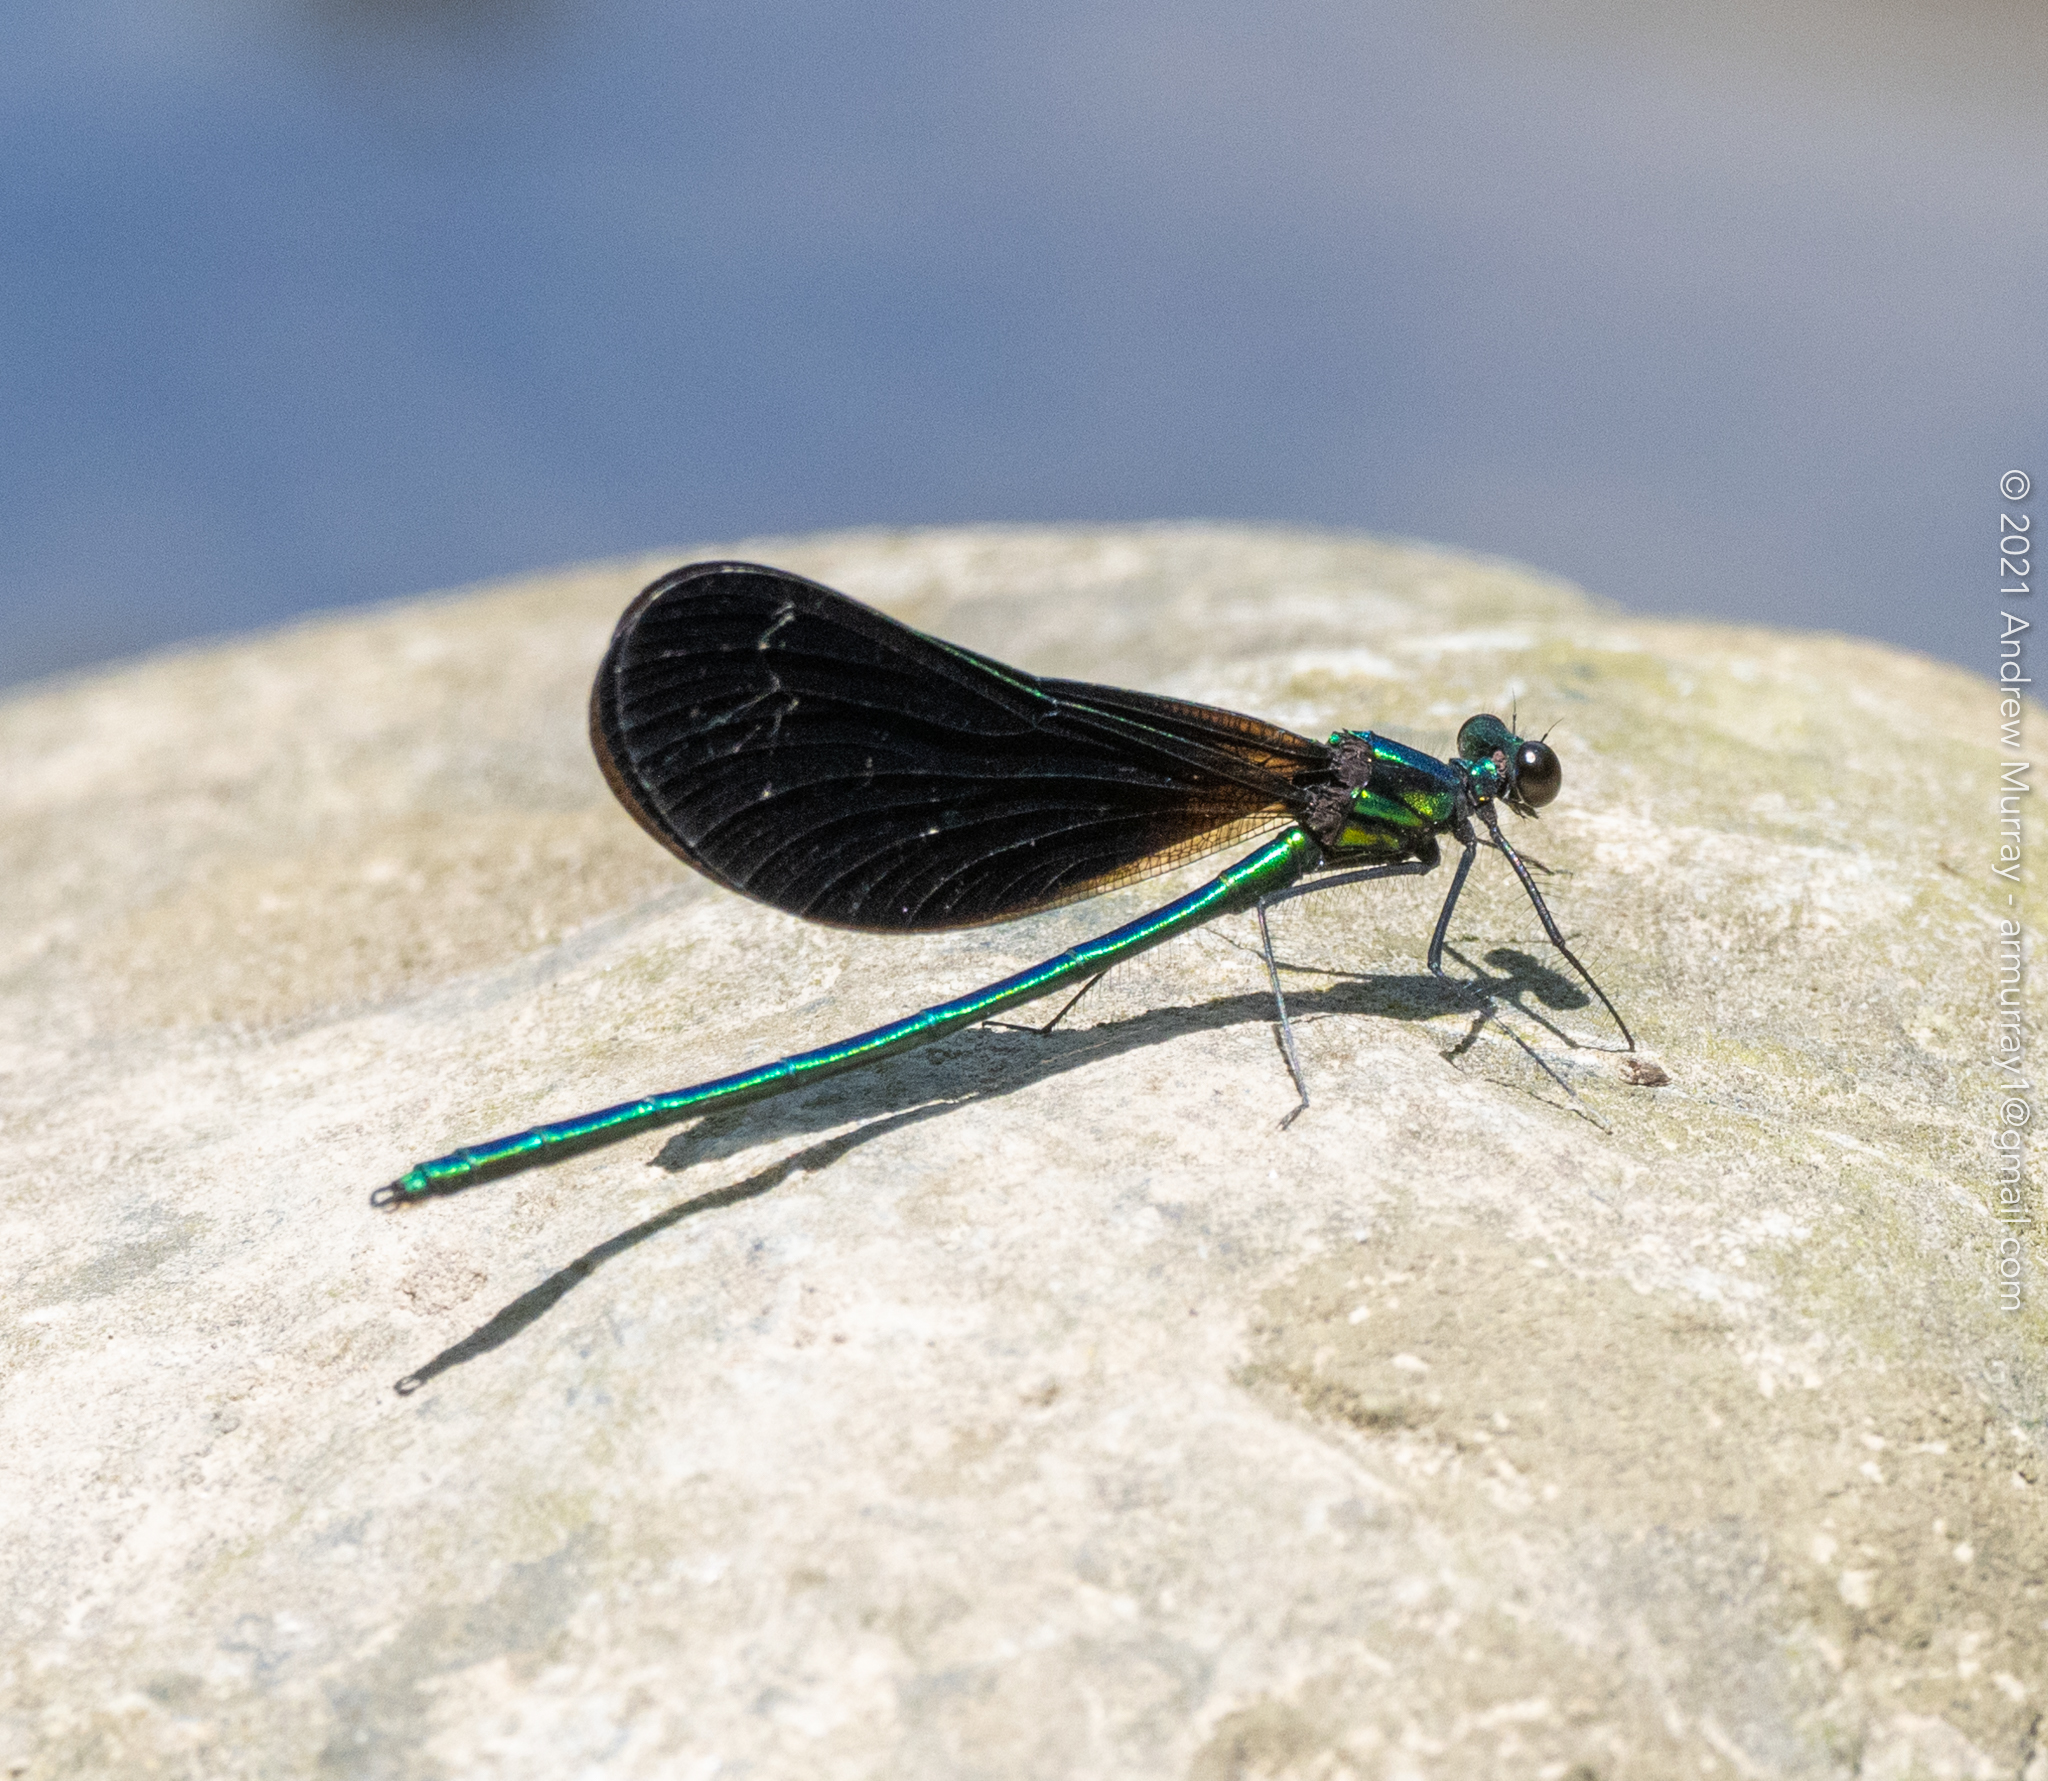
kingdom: Animalia
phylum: Arthropoda
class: Insecta
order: Odonata
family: Calopterygidae
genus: Calopteryx
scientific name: Calopteryx maculata
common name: Ebony jewelwing
